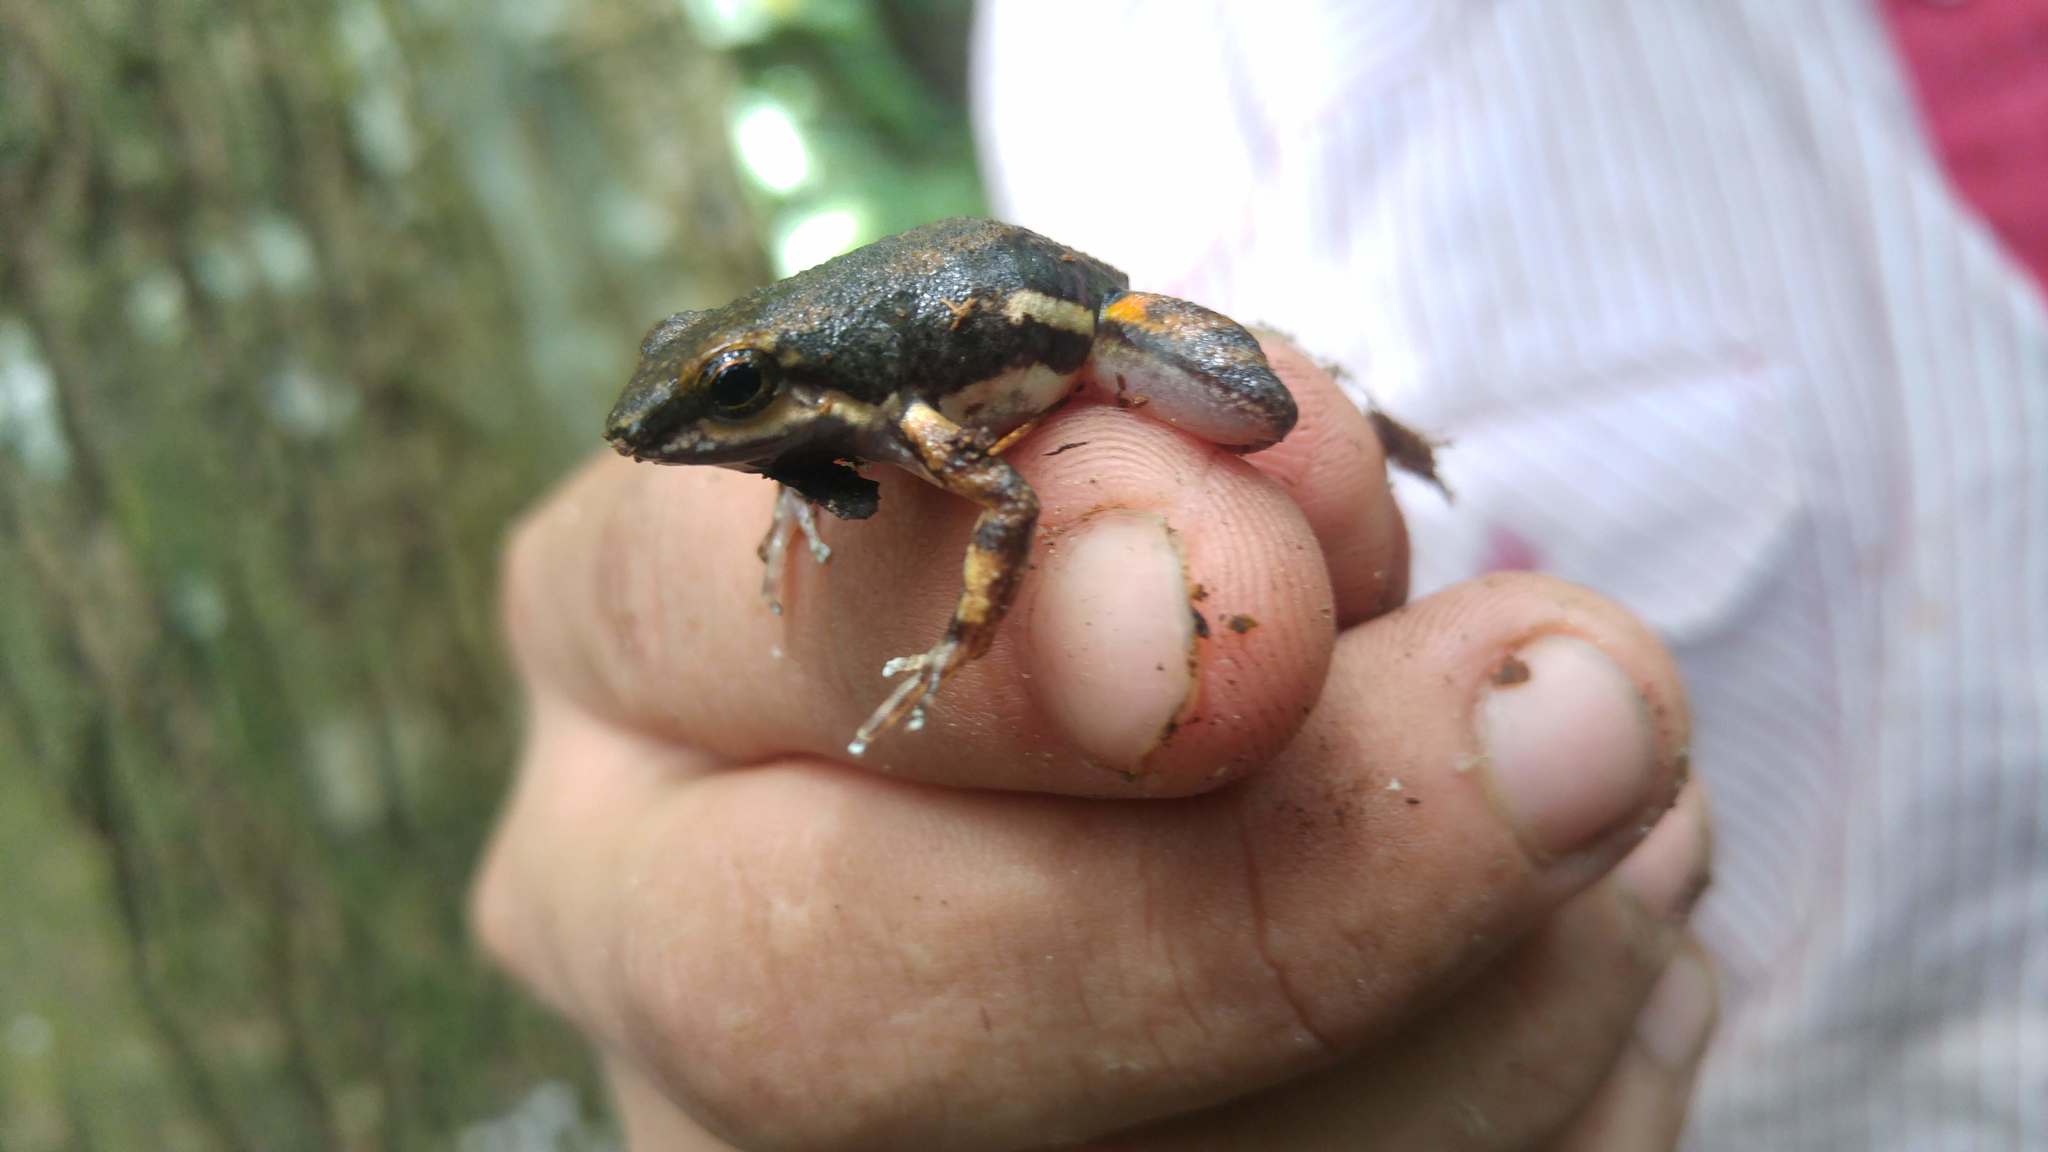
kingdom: Animalia
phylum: Chordata
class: Amphibia
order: Anura
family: Dendrobatidae
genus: Colostethus
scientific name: Colostethus inguinalis
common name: Common rocket frog
